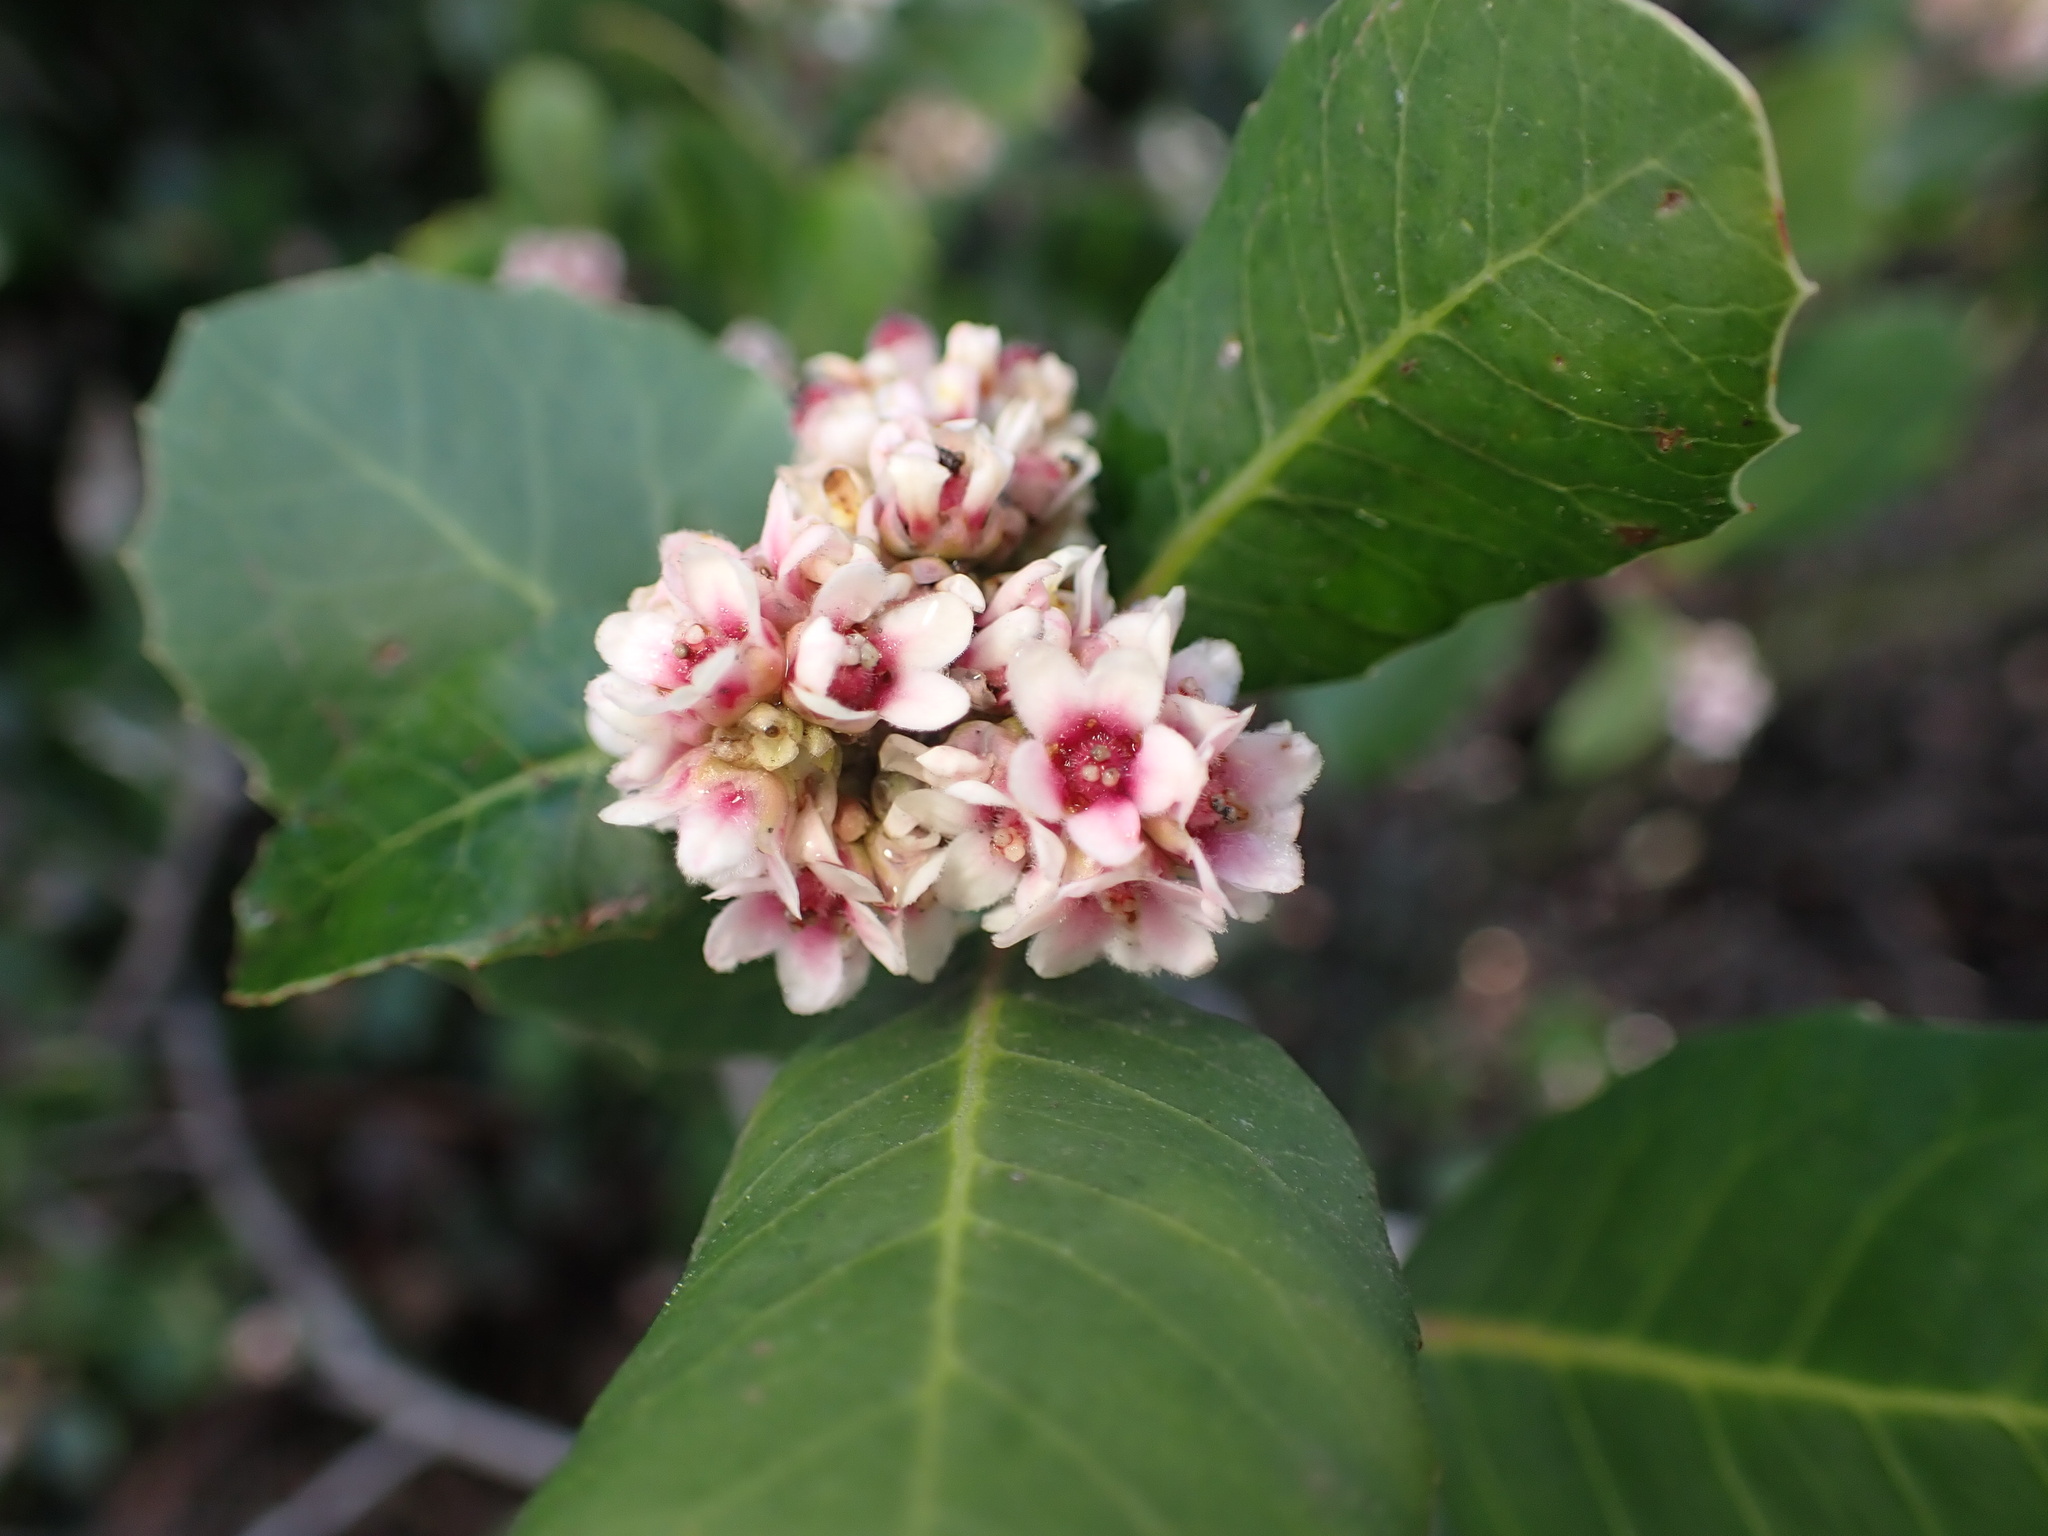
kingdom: Plantae
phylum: Tracheophyta
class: Magnoliopsida
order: Sapindales
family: Anacardiaceae
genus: Rhus
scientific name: Rhus integrifolia
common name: Lemonade sumac
